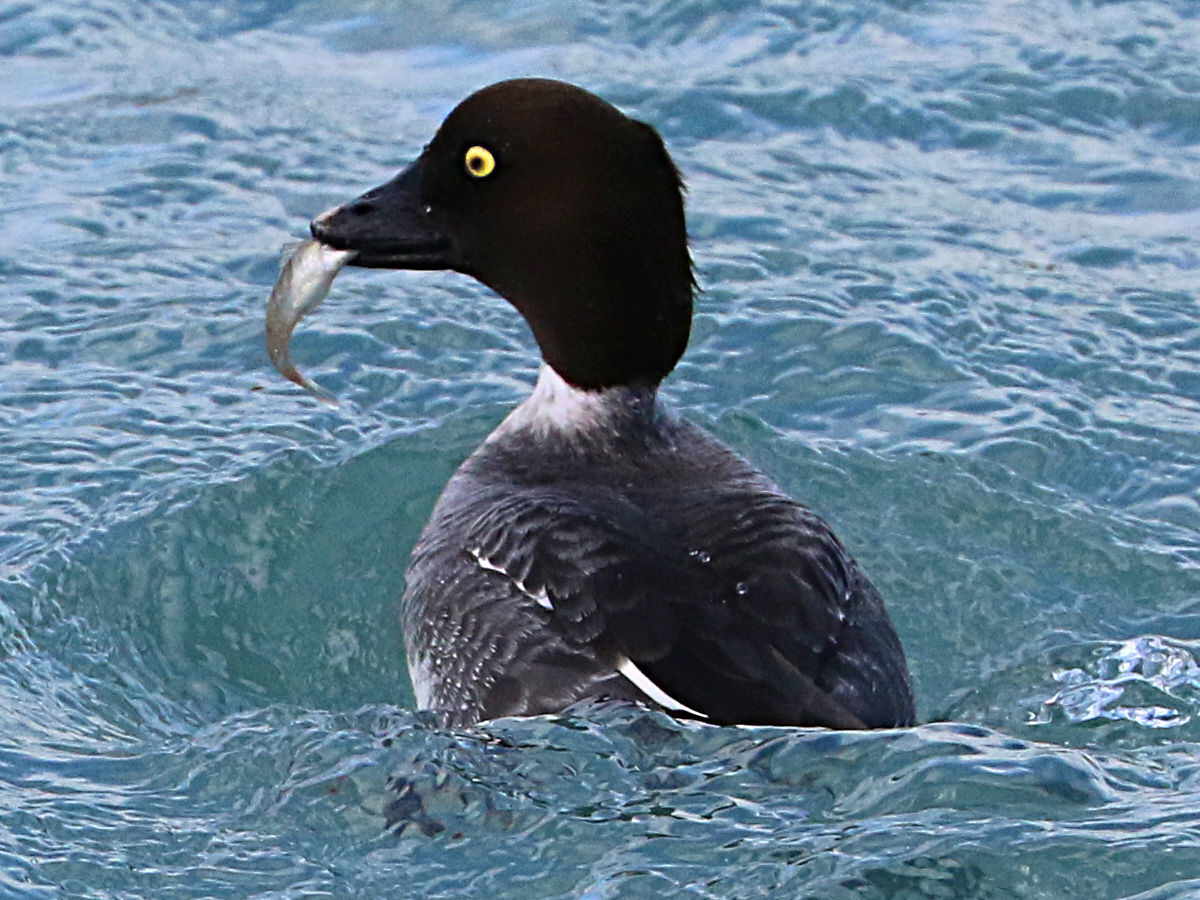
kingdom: Animalia
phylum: Chordata
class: Aves
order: Anseriformes
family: Anatidae
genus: Bucephala
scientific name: Bucephala clangula
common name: Common goldeneye
